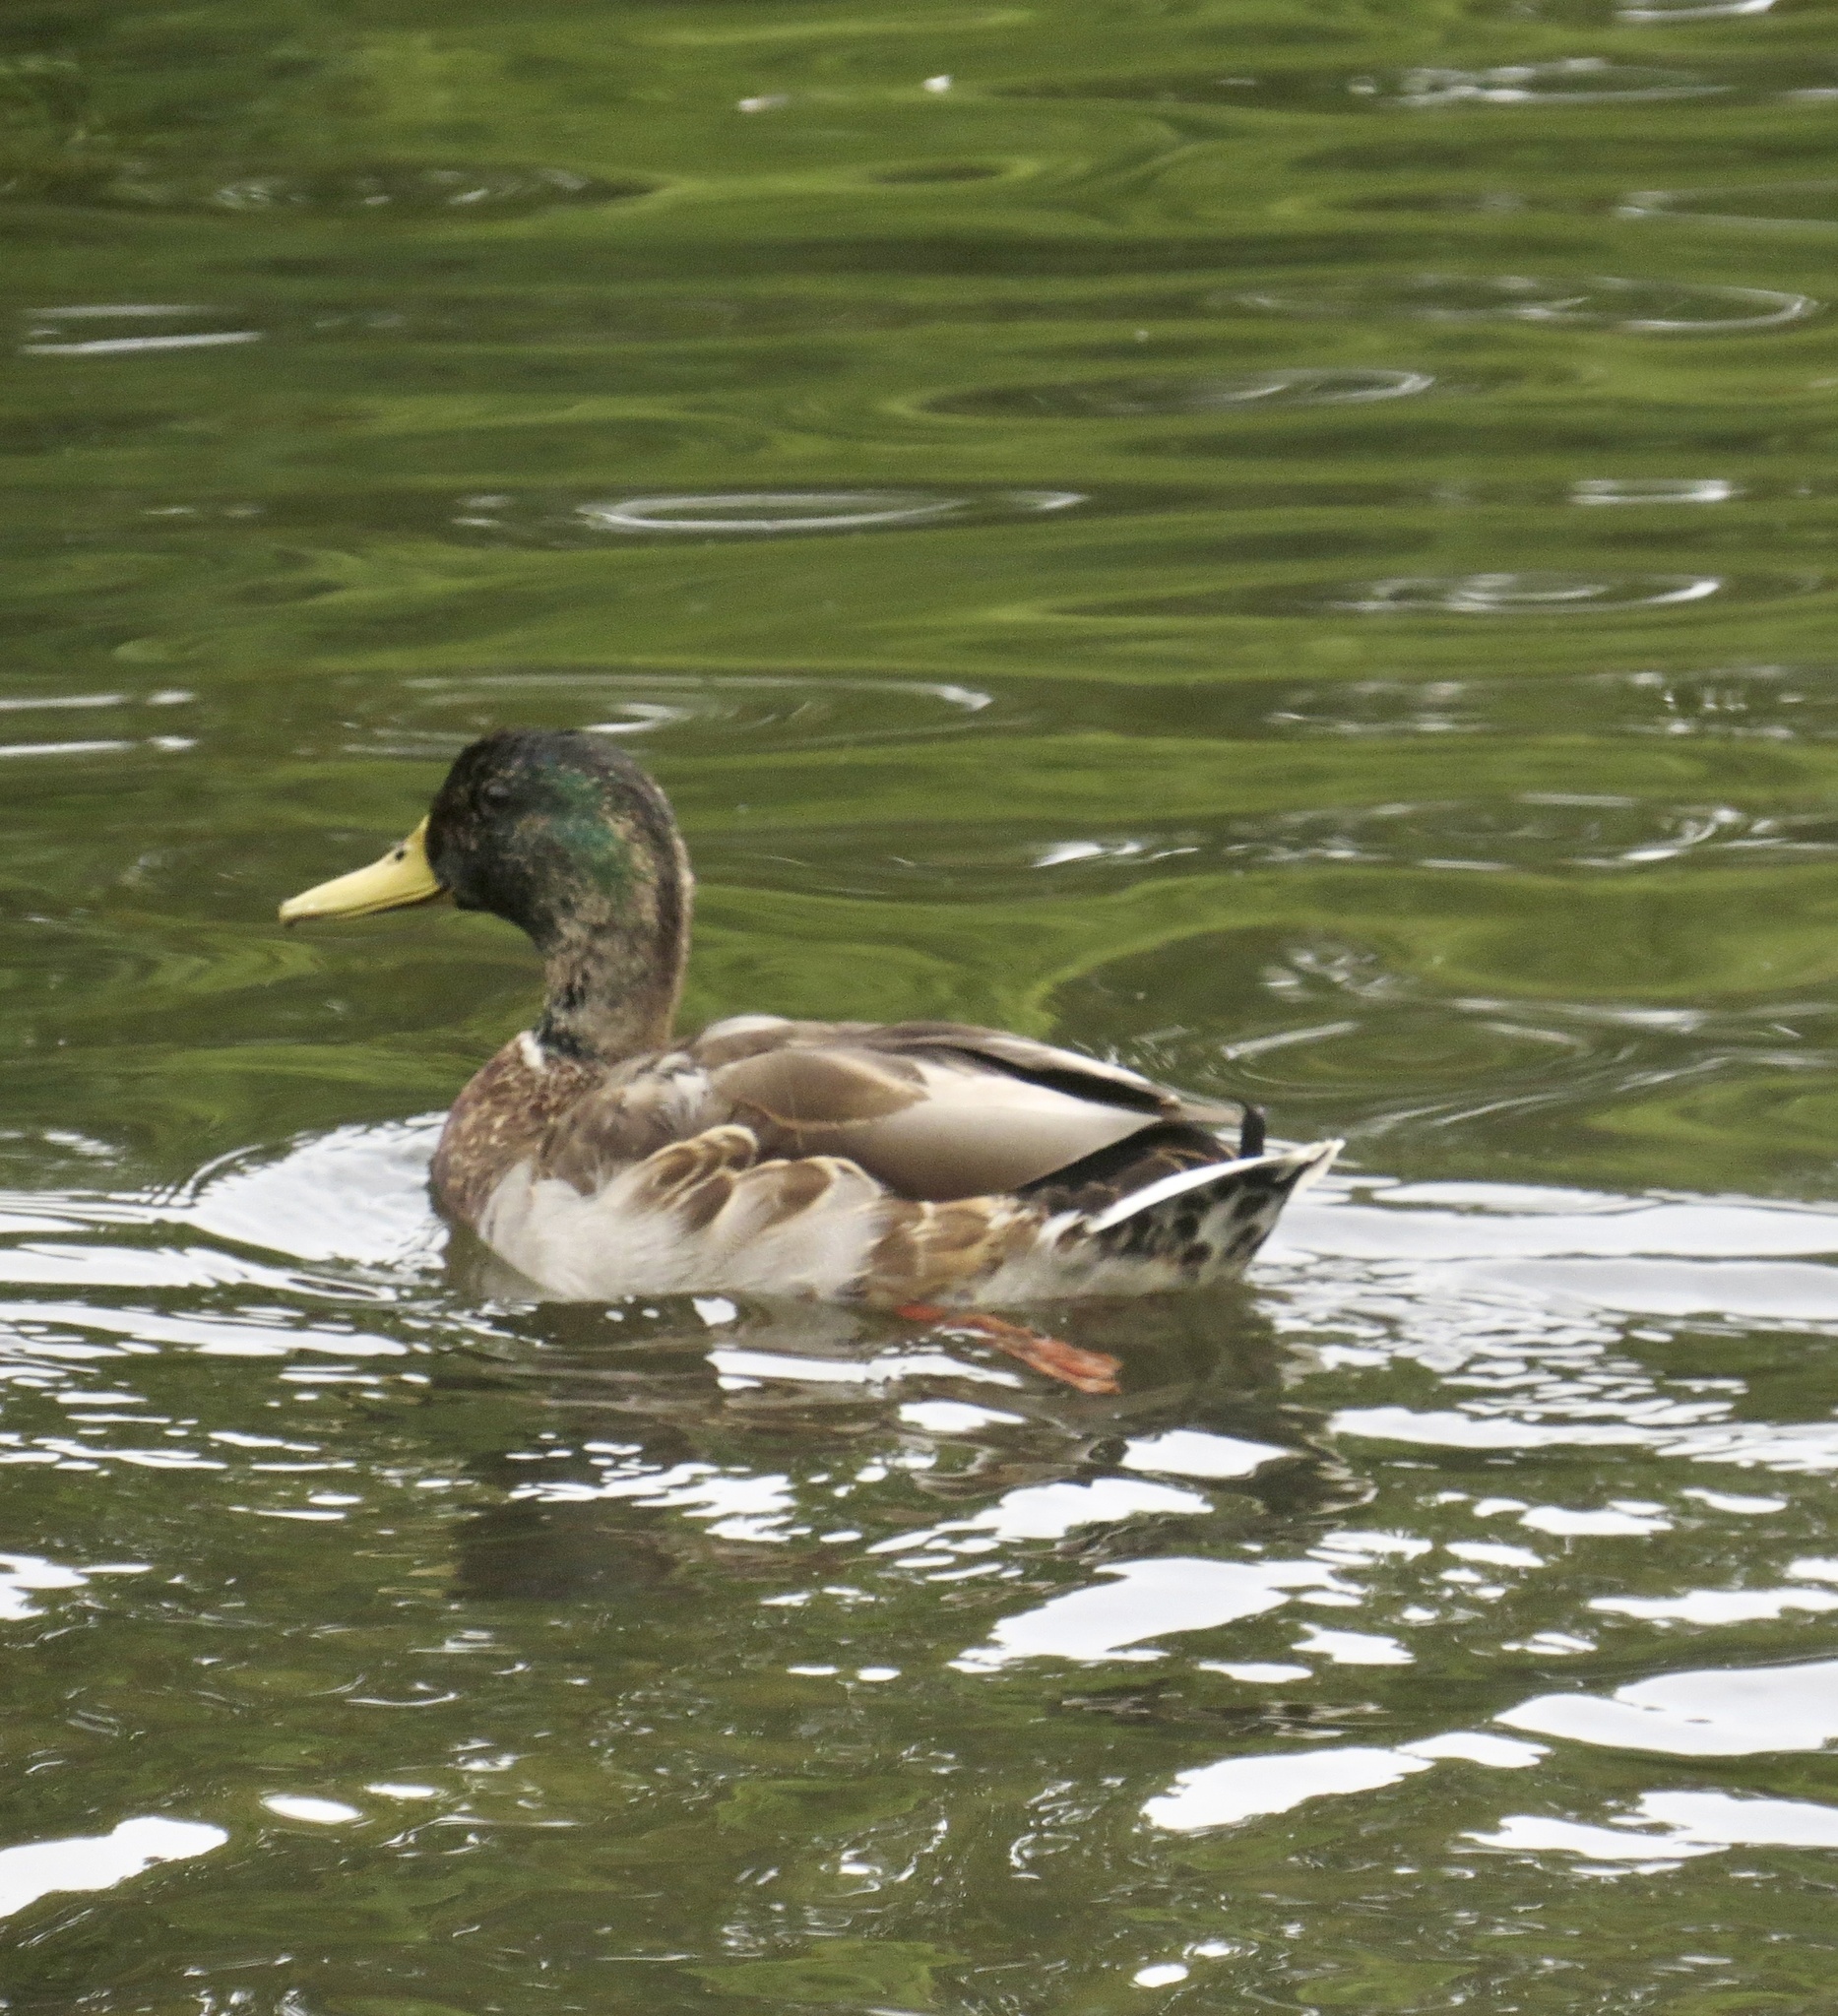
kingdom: Animalia
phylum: Chordata
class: Aves
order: Anseriformes
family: Anatidae
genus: Anas
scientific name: Anas platyrhynchos
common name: Mallard
